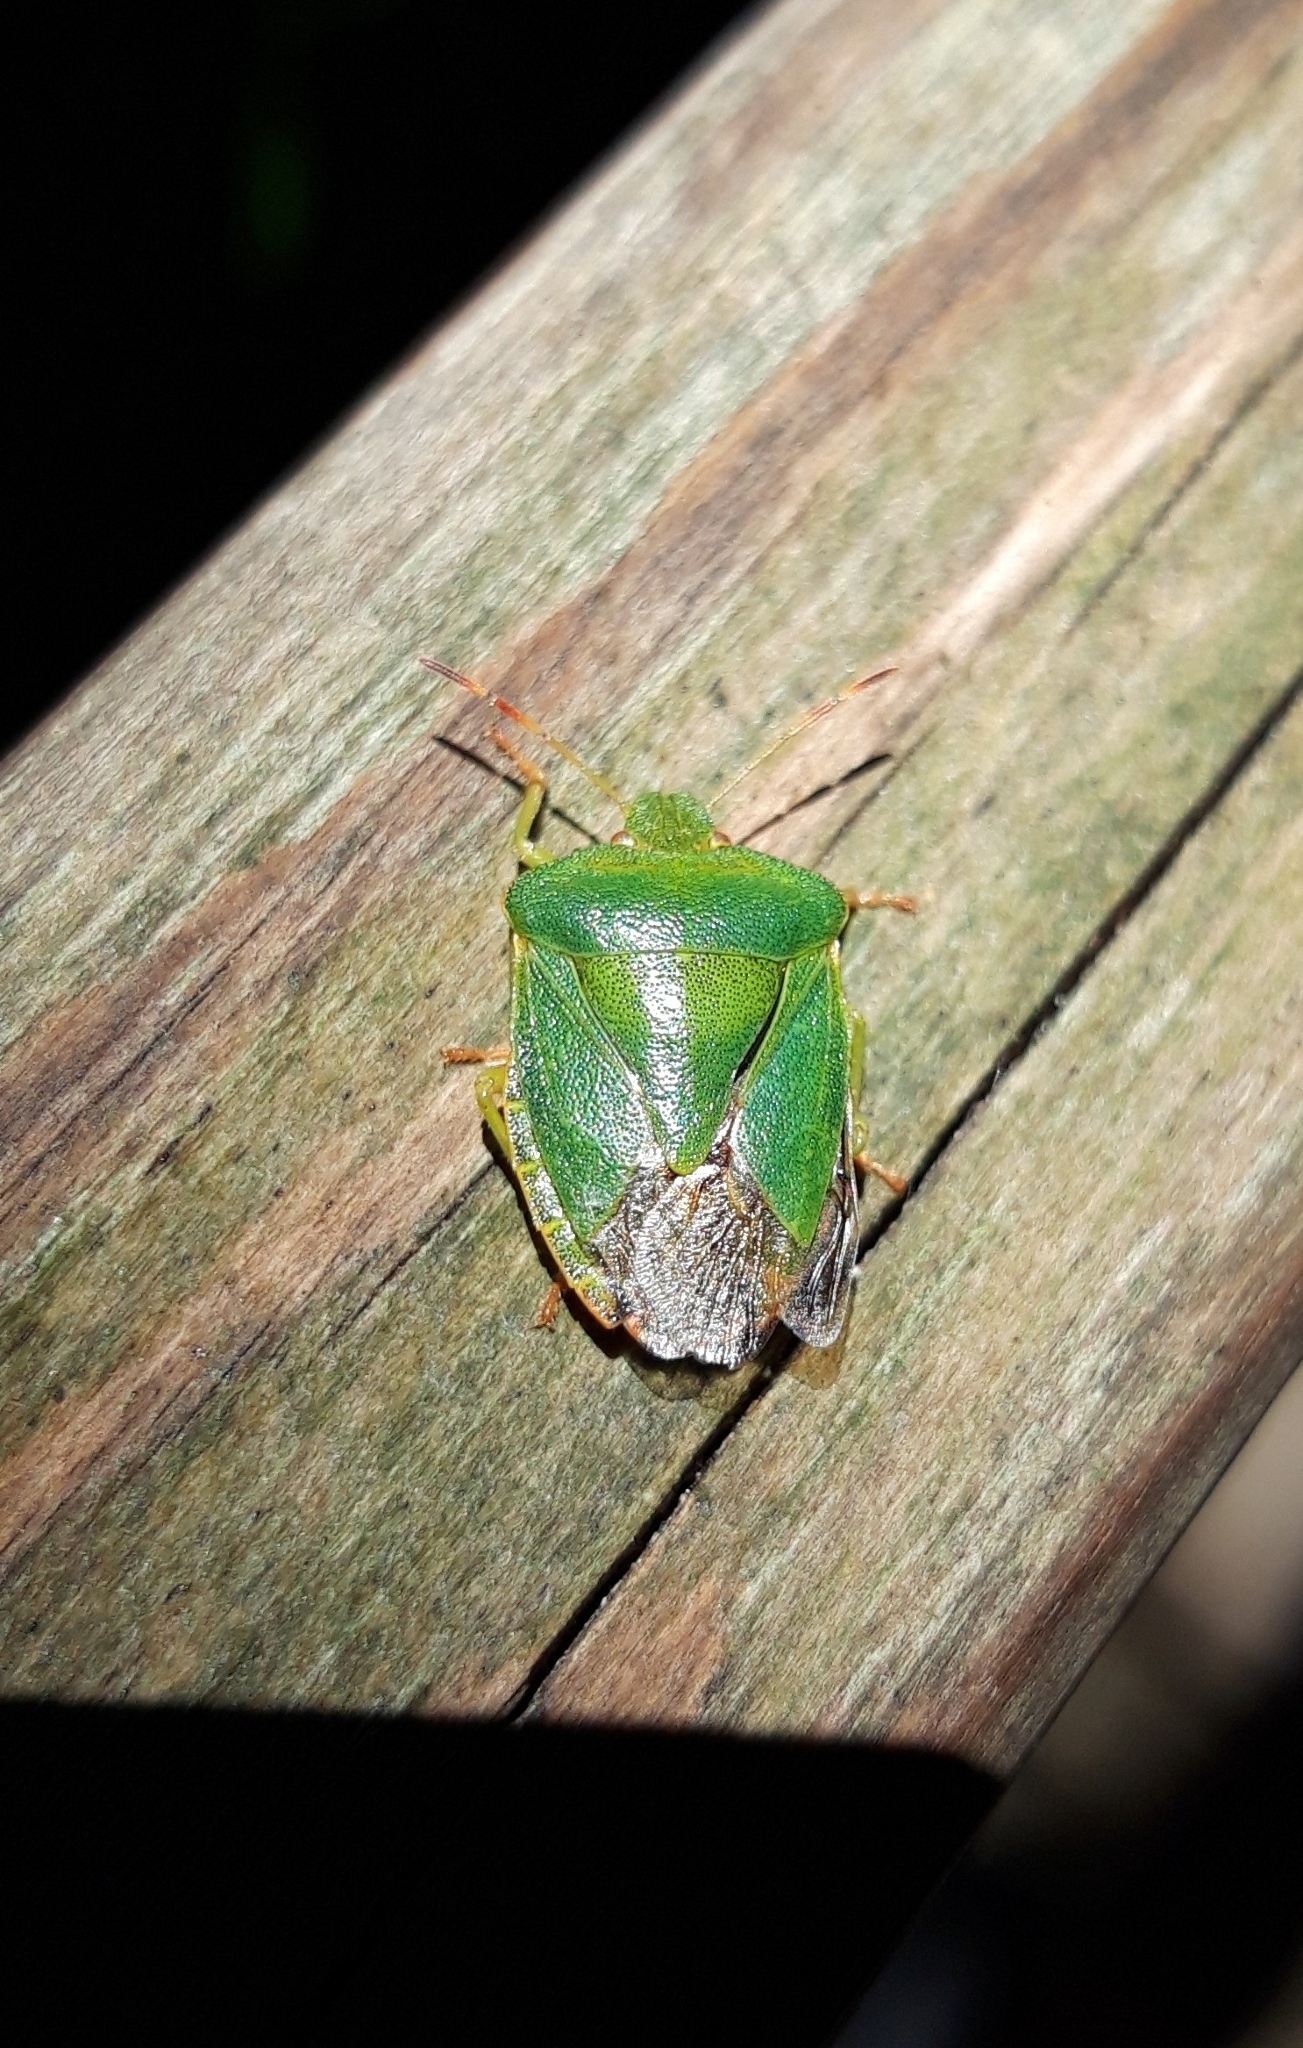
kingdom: Animalia
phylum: Arthropoda
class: Insecta
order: Hemiptera
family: Pentatomidae
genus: Palomena
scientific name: Palomena prasina
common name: Green shieldbug
